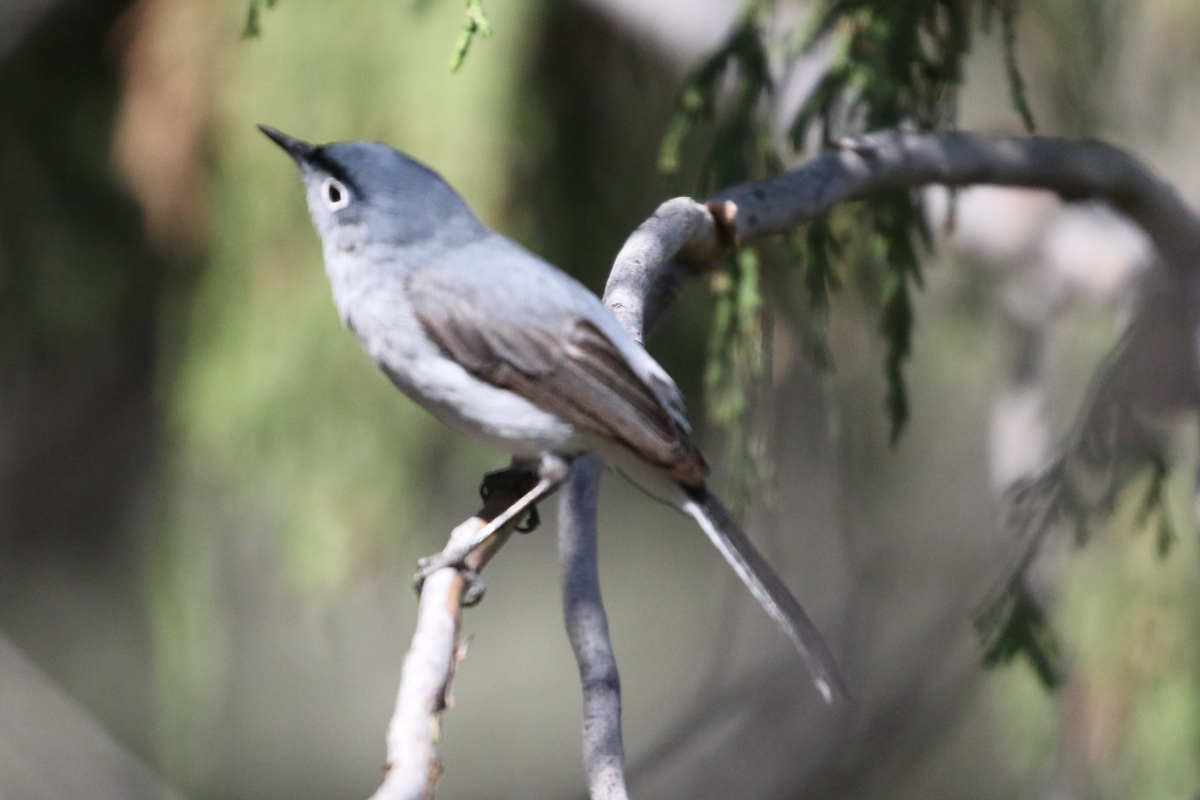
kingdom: Animalia
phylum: Chordata
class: Aves
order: Passeriformes
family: Polioptilidae
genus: Polioptila
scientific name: Polioptila caerulea
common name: Blue-gray gnatcatcher
